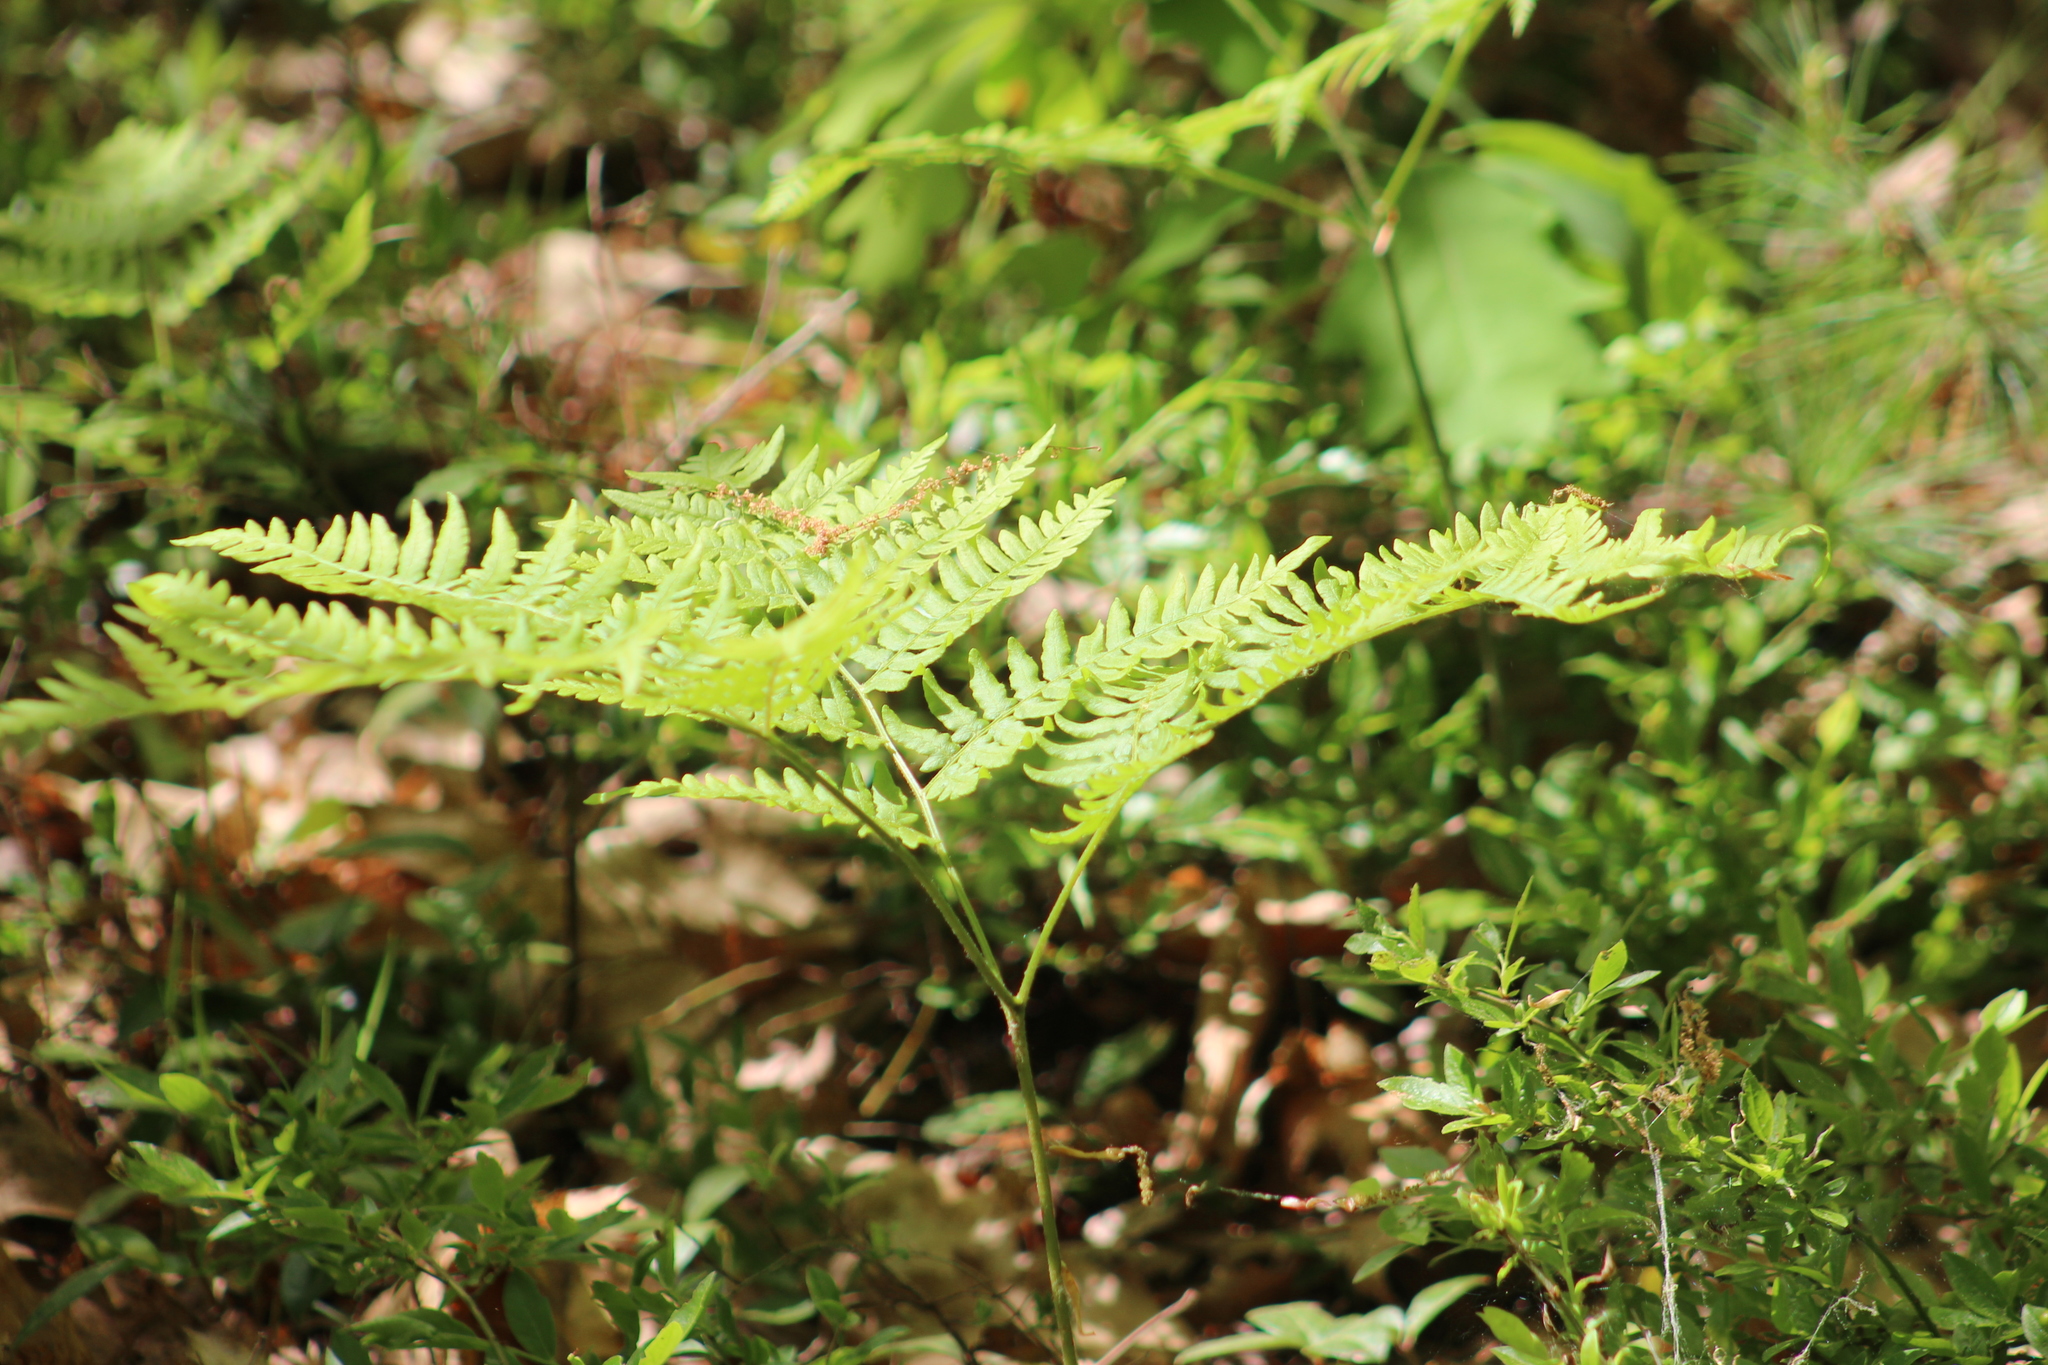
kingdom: Plantae
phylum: Tracheophyta
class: Polypodiopsida
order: Polypodiales
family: Dennstaedtiaceae
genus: Pteridium
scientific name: Pteridium aquilinum
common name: Bracken
